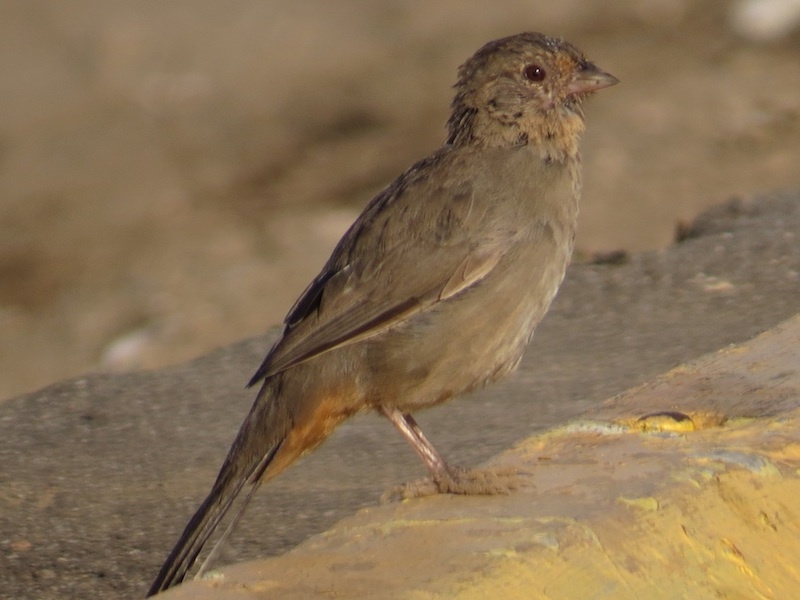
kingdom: Animalia
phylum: Chordata
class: Aves
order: Passeriformes
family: Passerellidae
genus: Melozone
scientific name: Melozone crissalis
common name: California towhee
